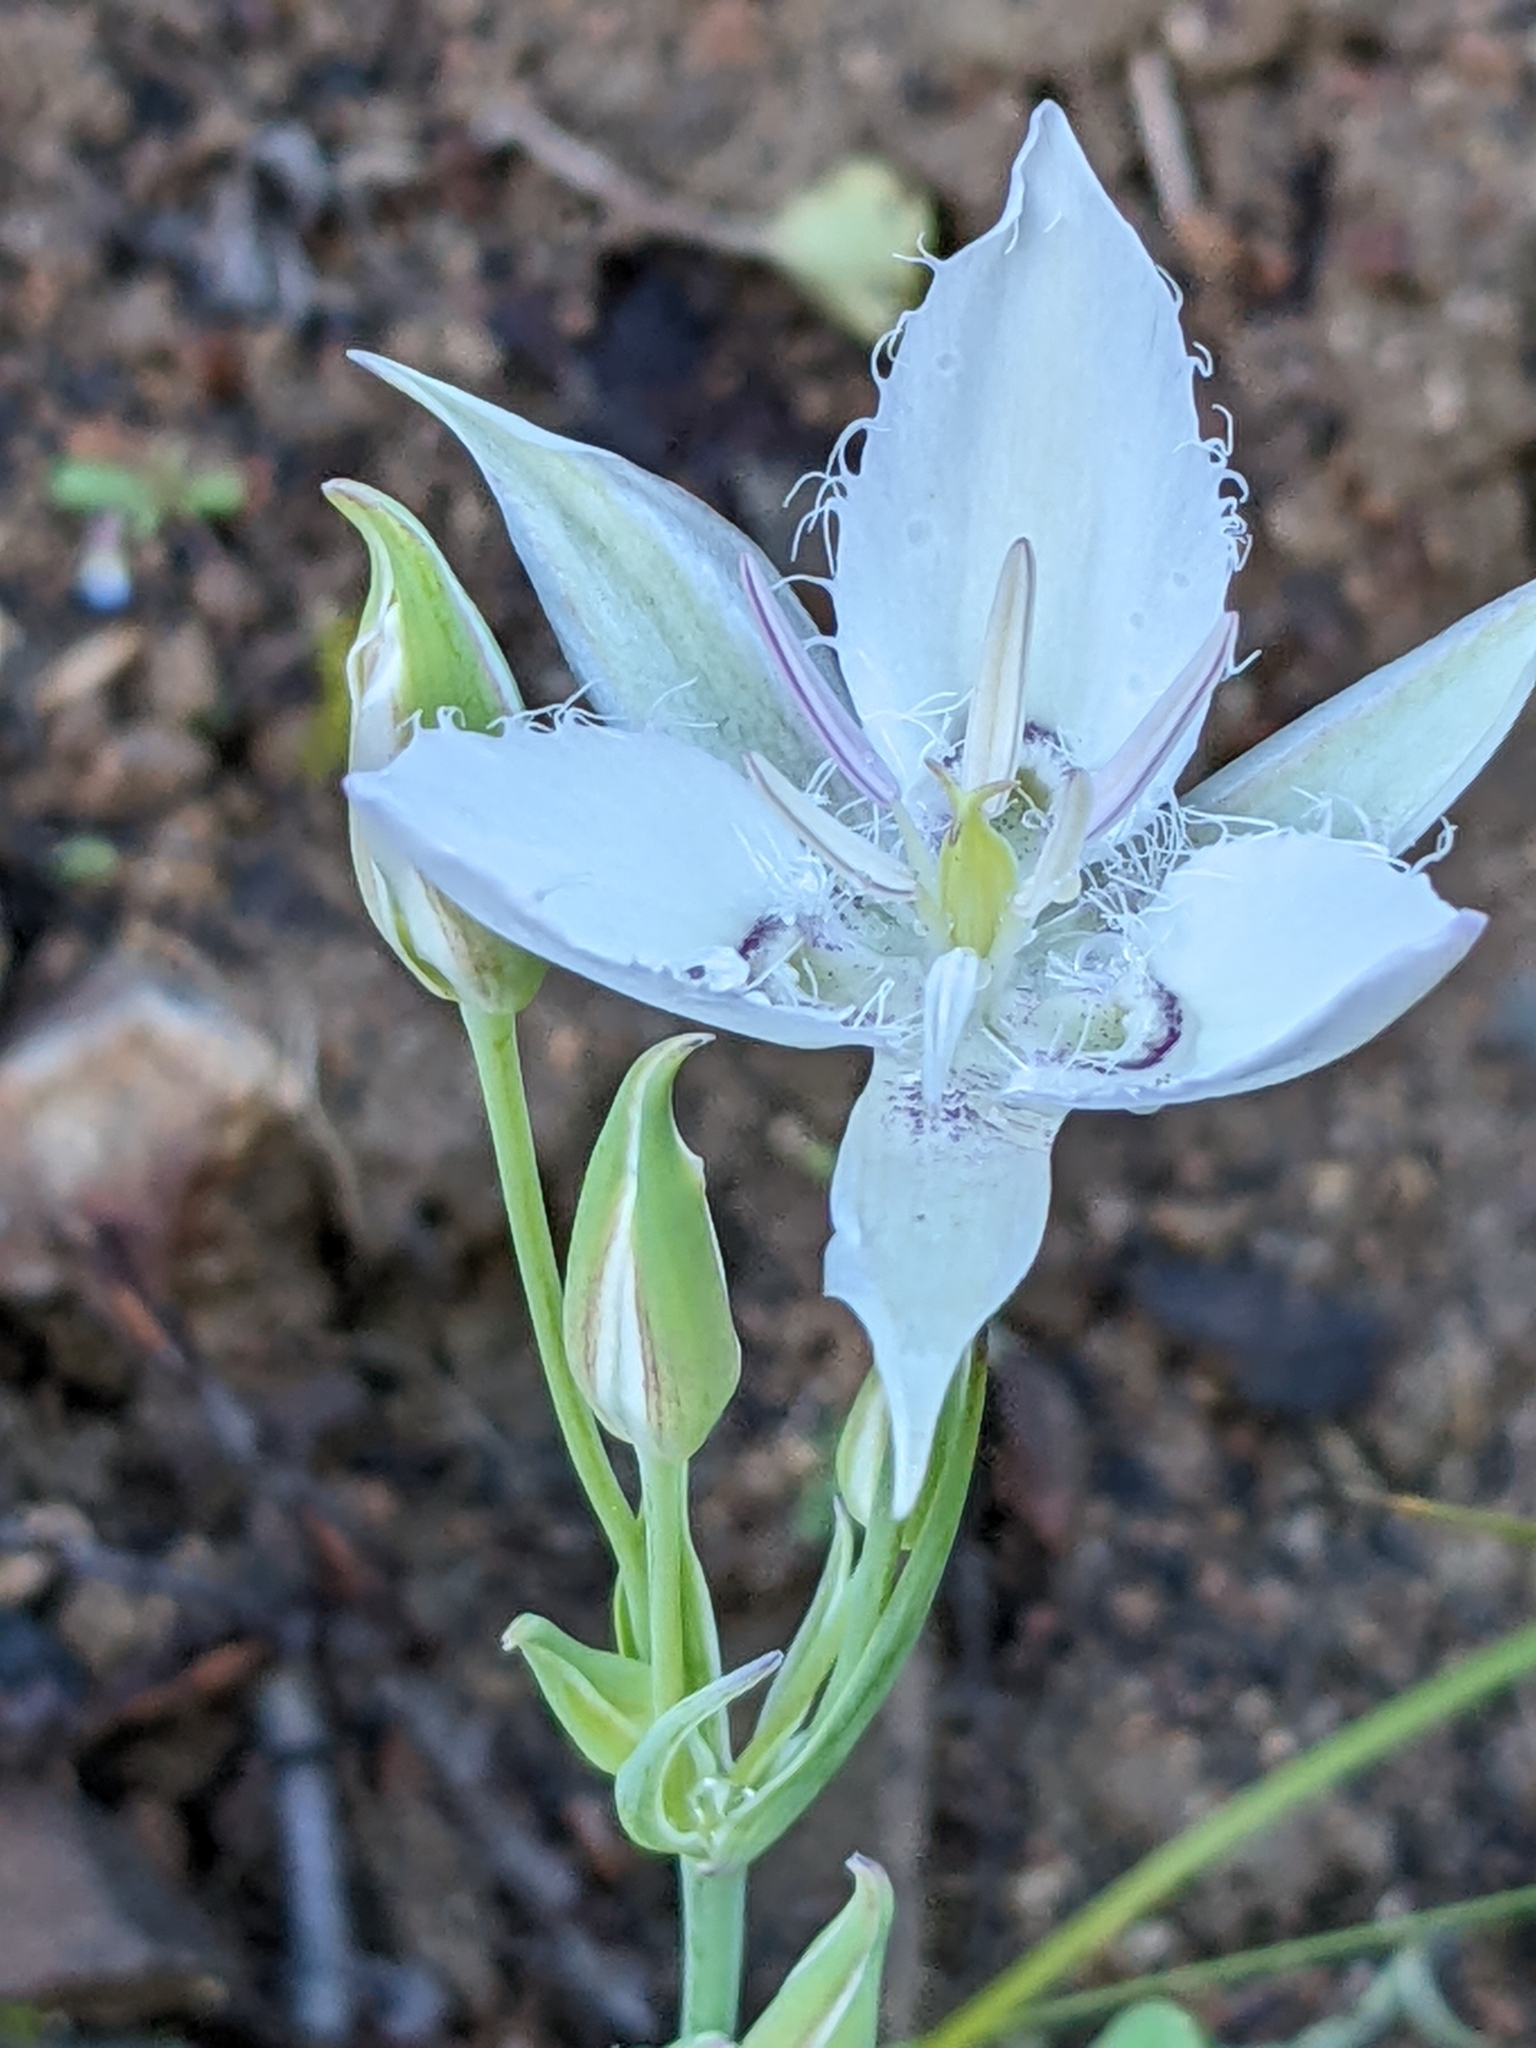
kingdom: Plantae
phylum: Tracheophyta
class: Liliopsida
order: Liliales
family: Liliaceae
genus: Calochortus
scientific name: Calochortus lyallii
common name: Lyall's mariposa lily
